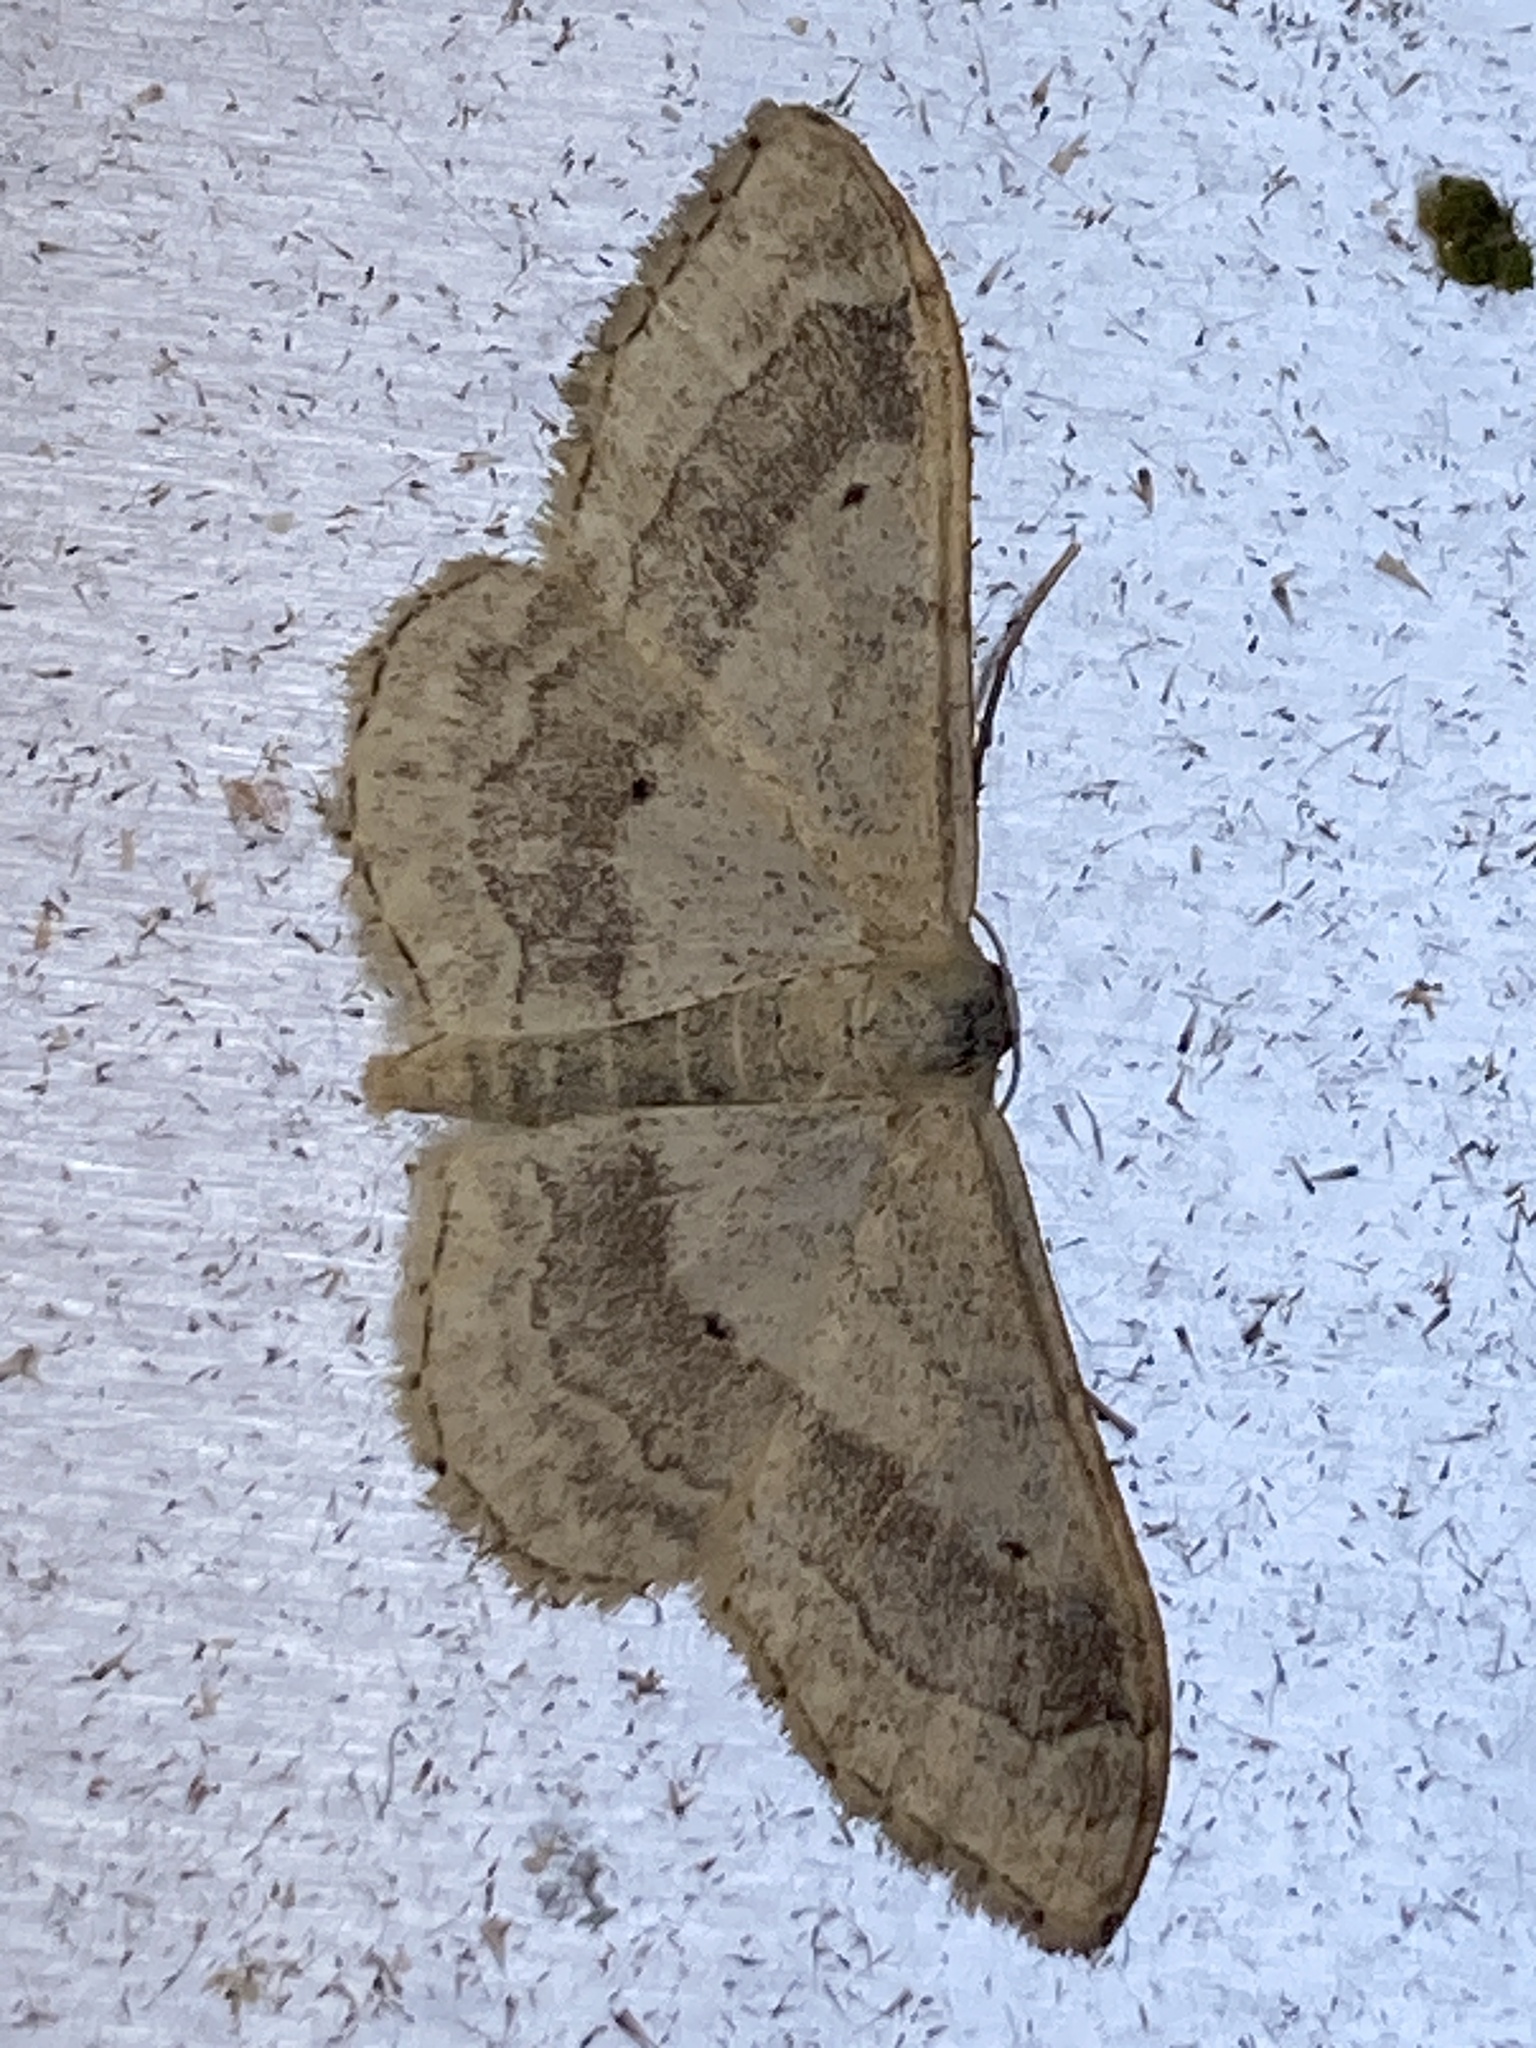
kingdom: Animalia
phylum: Arthropoda
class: Insecta
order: Lepidoptera
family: Geometridae
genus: Idaea
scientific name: Idaea aversata
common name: Riband wave
